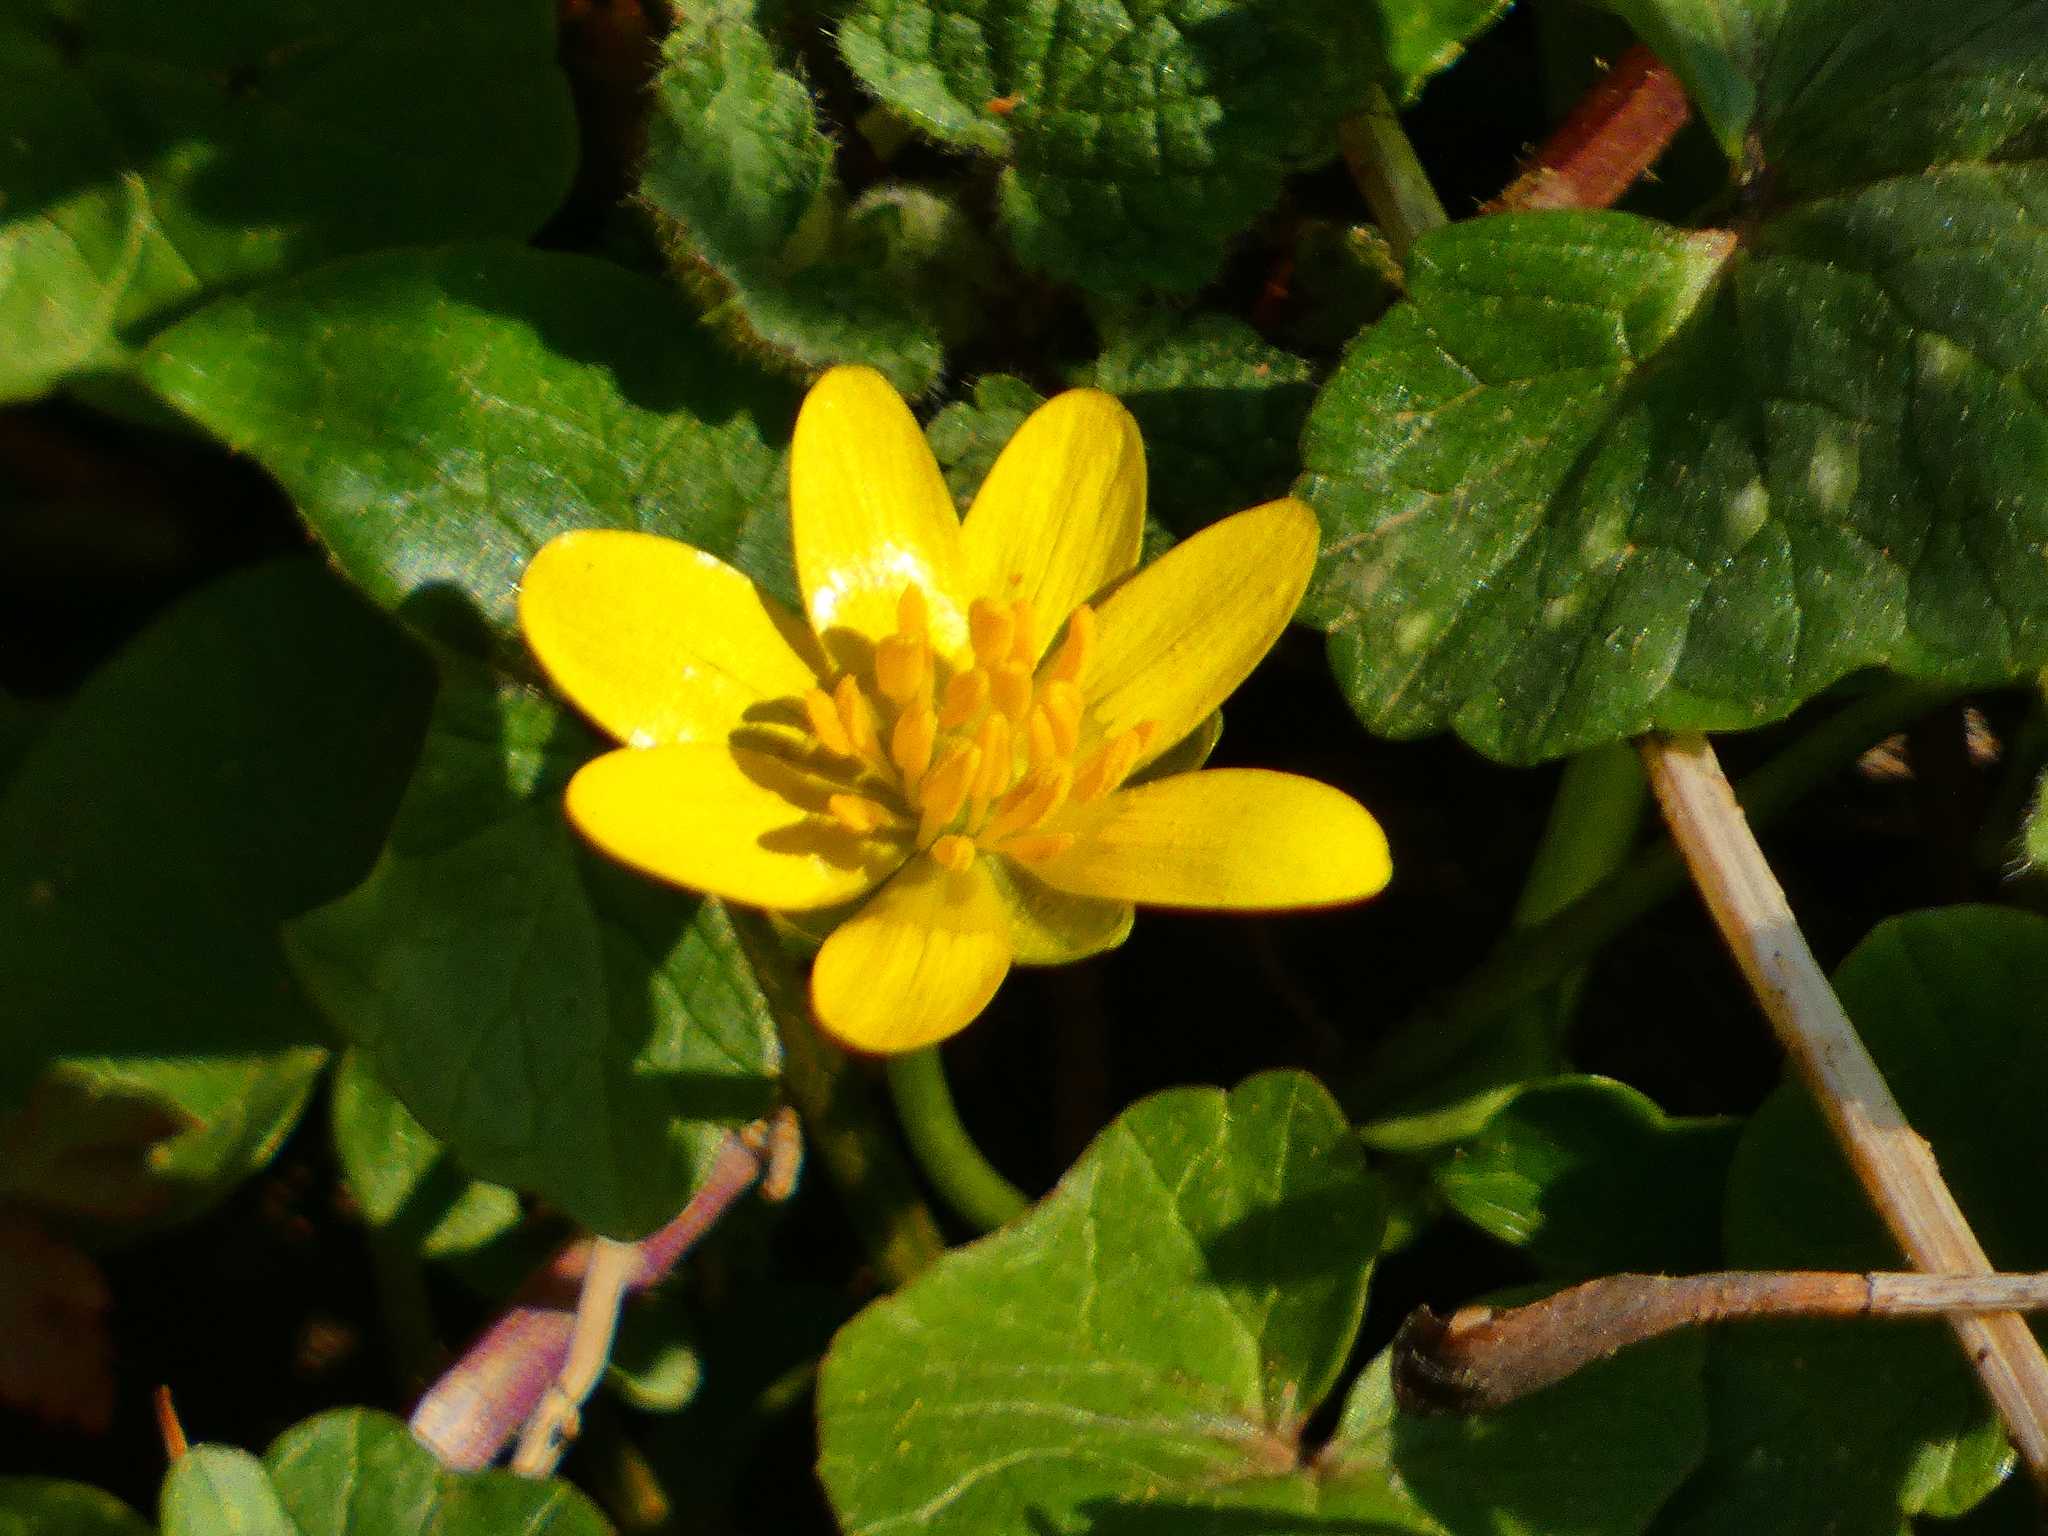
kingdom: Plantae
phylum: Tracheophyta
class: Magnoliopsida
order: Ranunculales
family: Ranunculaceae
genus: Ficaria
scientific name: Ficaria verna
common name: Lesser celandine
